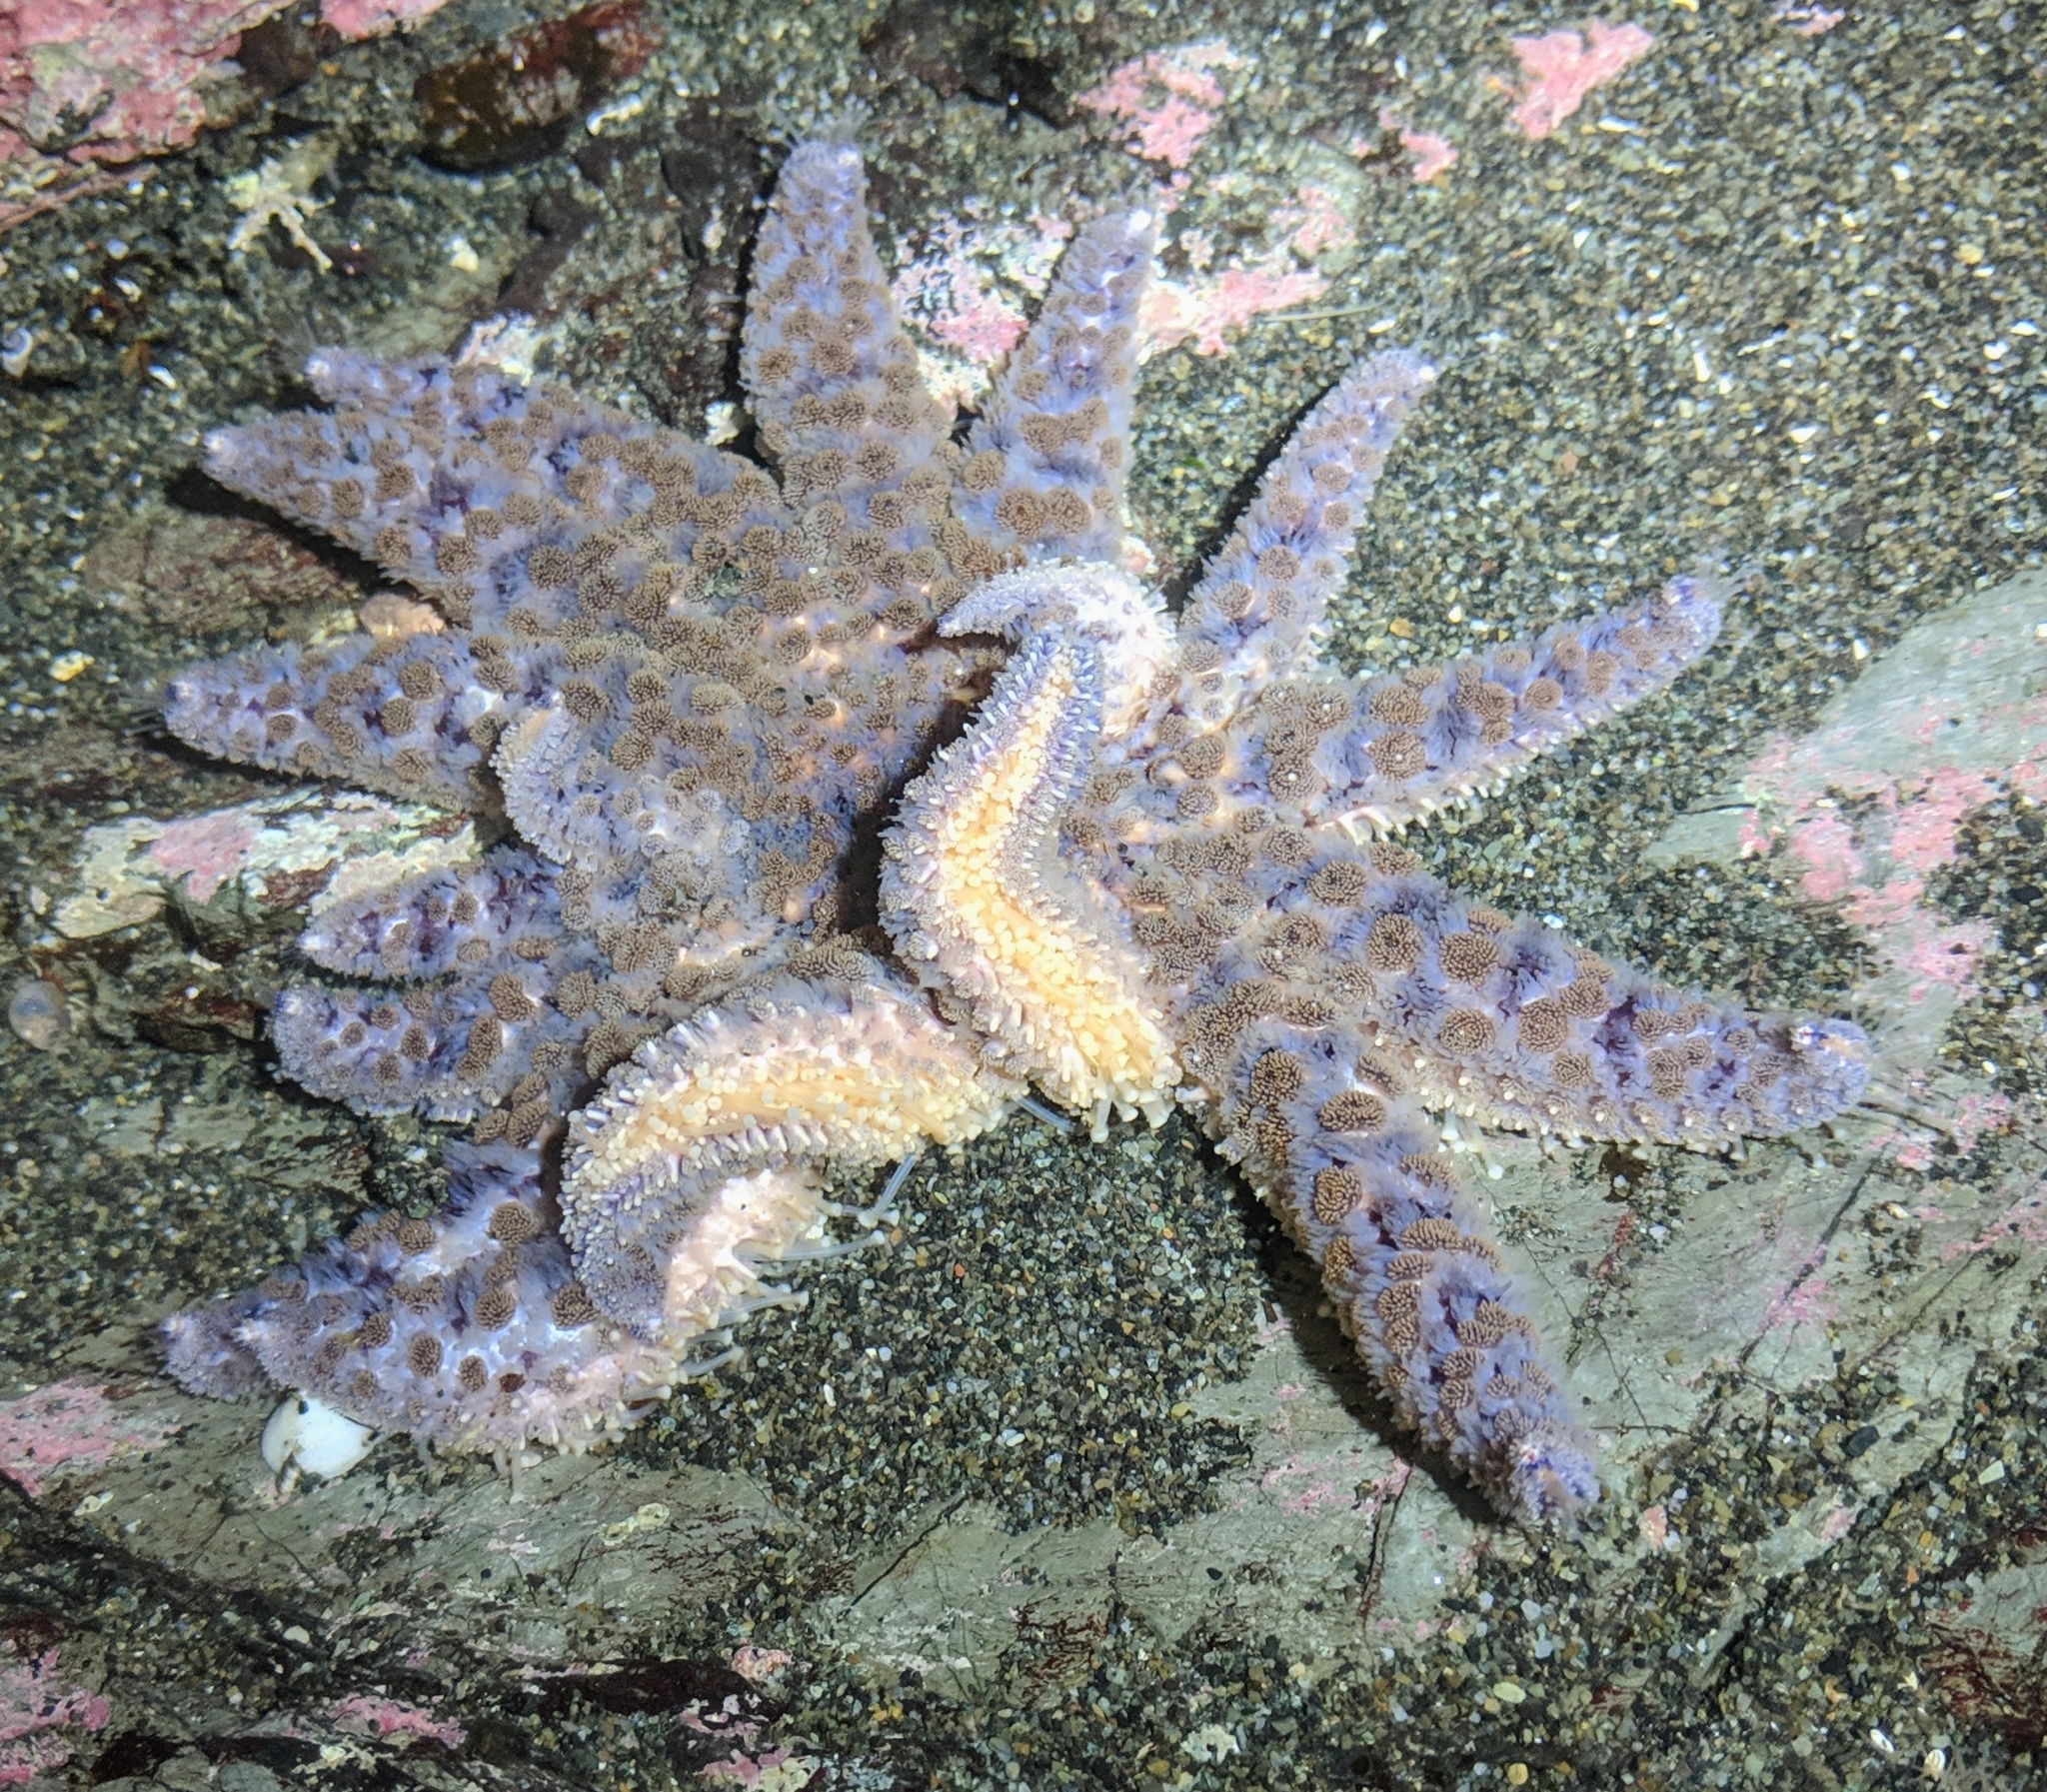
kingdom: Animalia
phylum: Echinodermata
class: Asteroidea
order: Forcipulatida
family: Asteriidae
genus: Pycnopodia
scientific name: Pycnopodia helianthoides
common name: Rag mop
